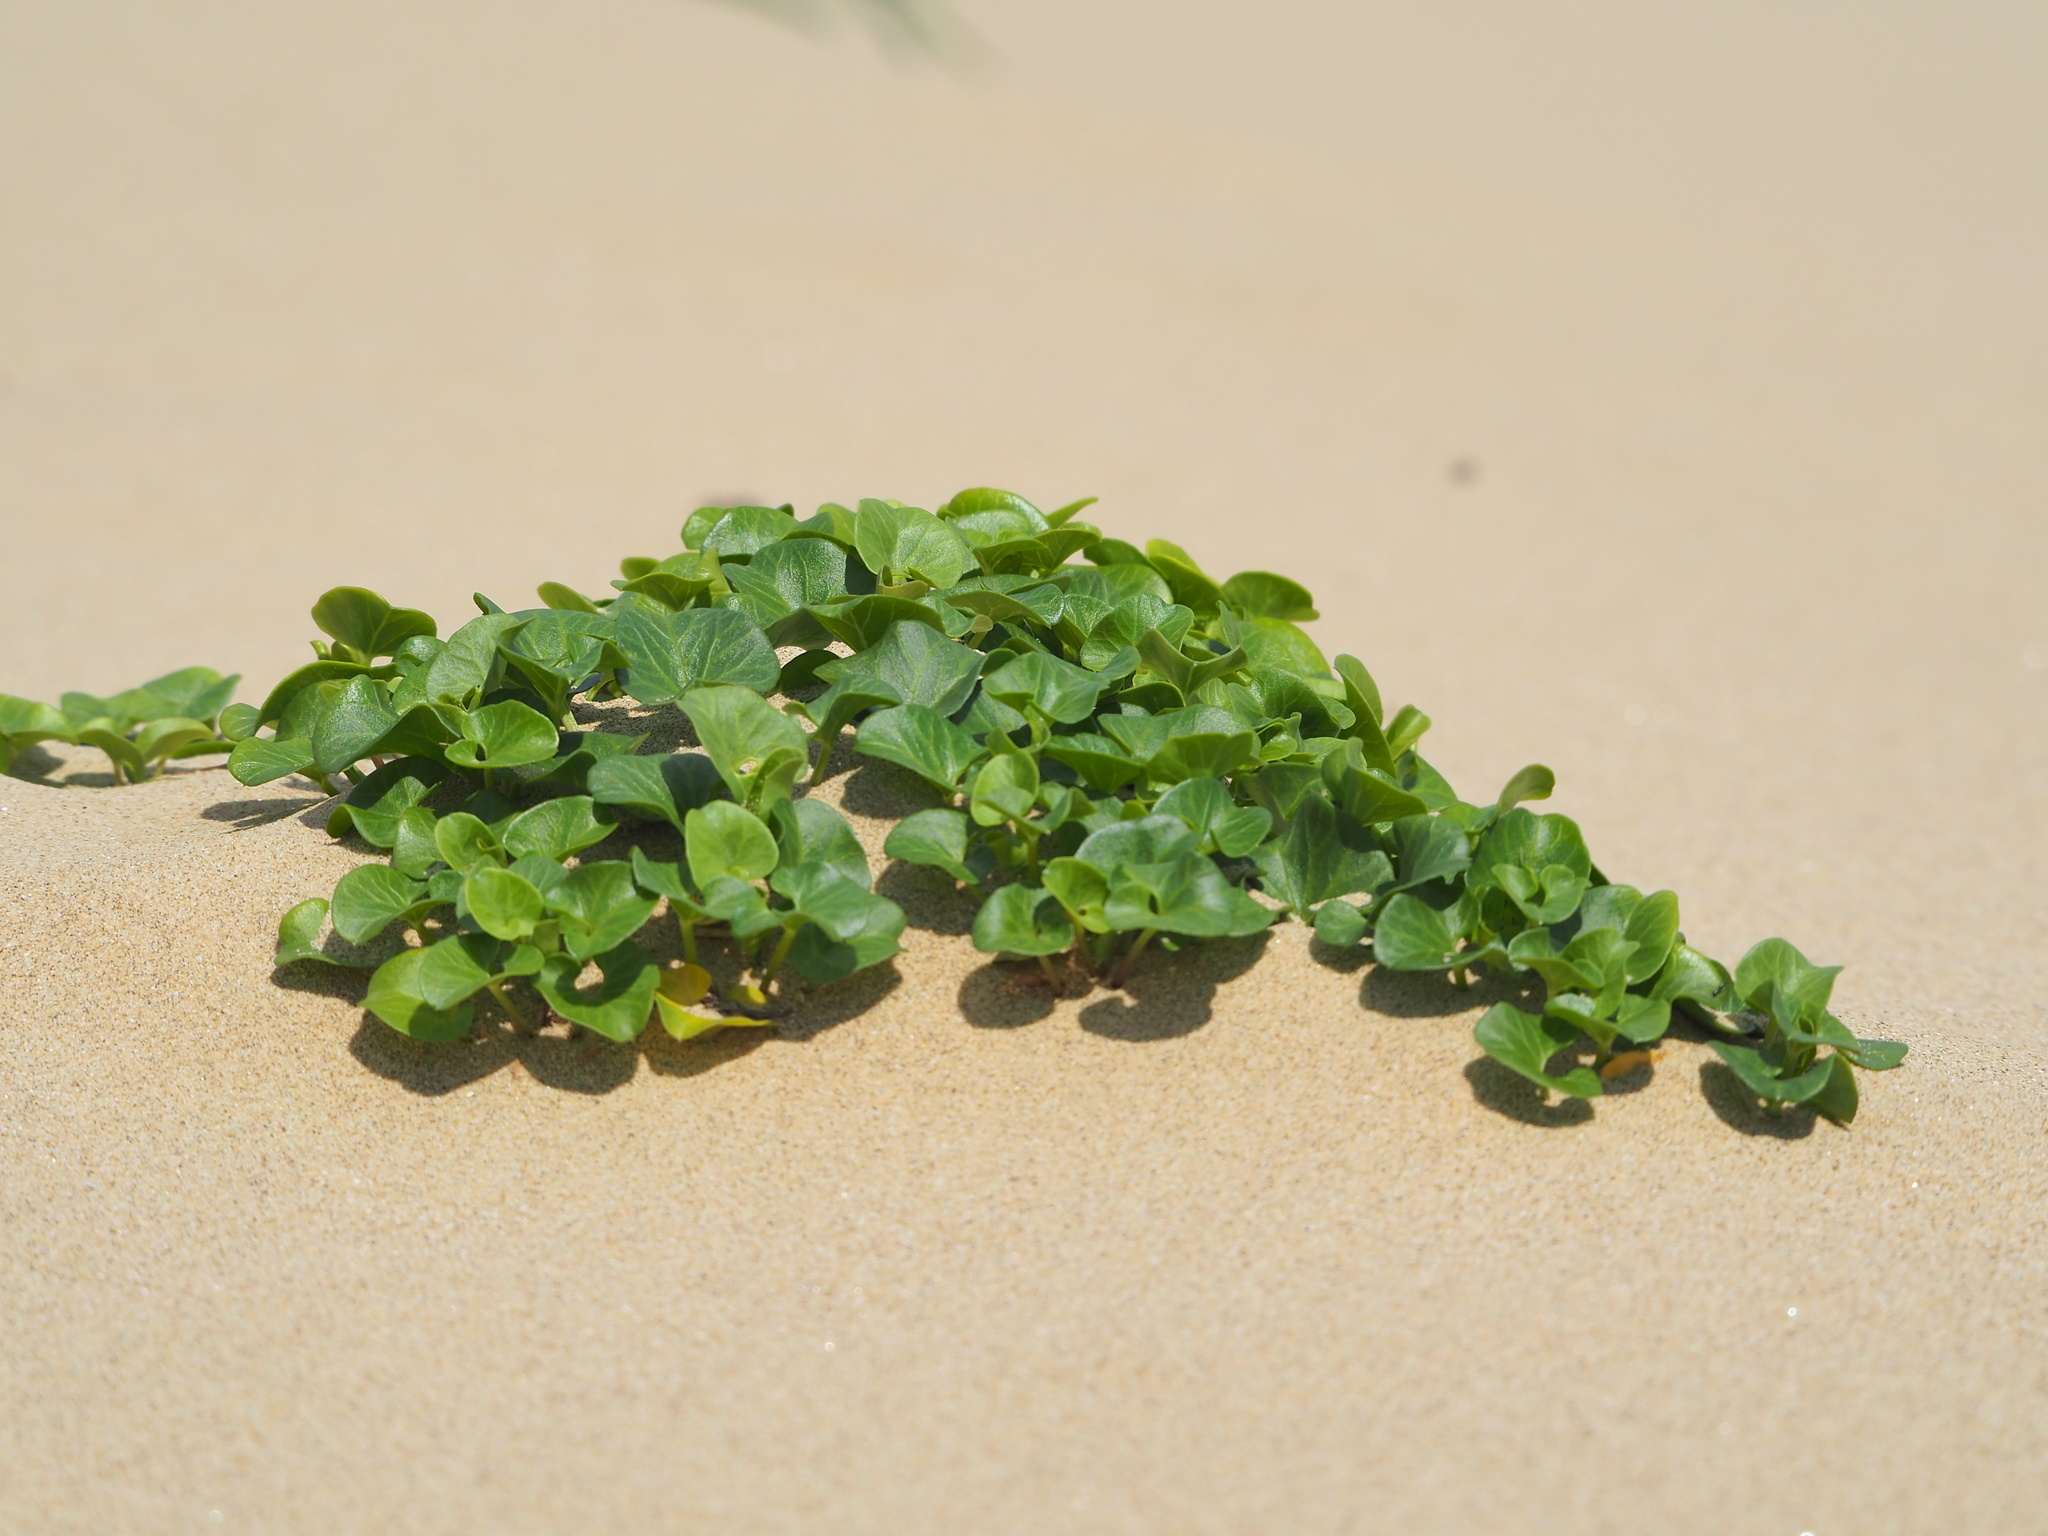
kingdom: Plantae
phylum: Tracheophyta
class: Magnoliopsida
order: Solanales
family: Convolvulaceae
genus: Calystegia
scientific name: Calystegia soldanella
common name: Sea bindweed
